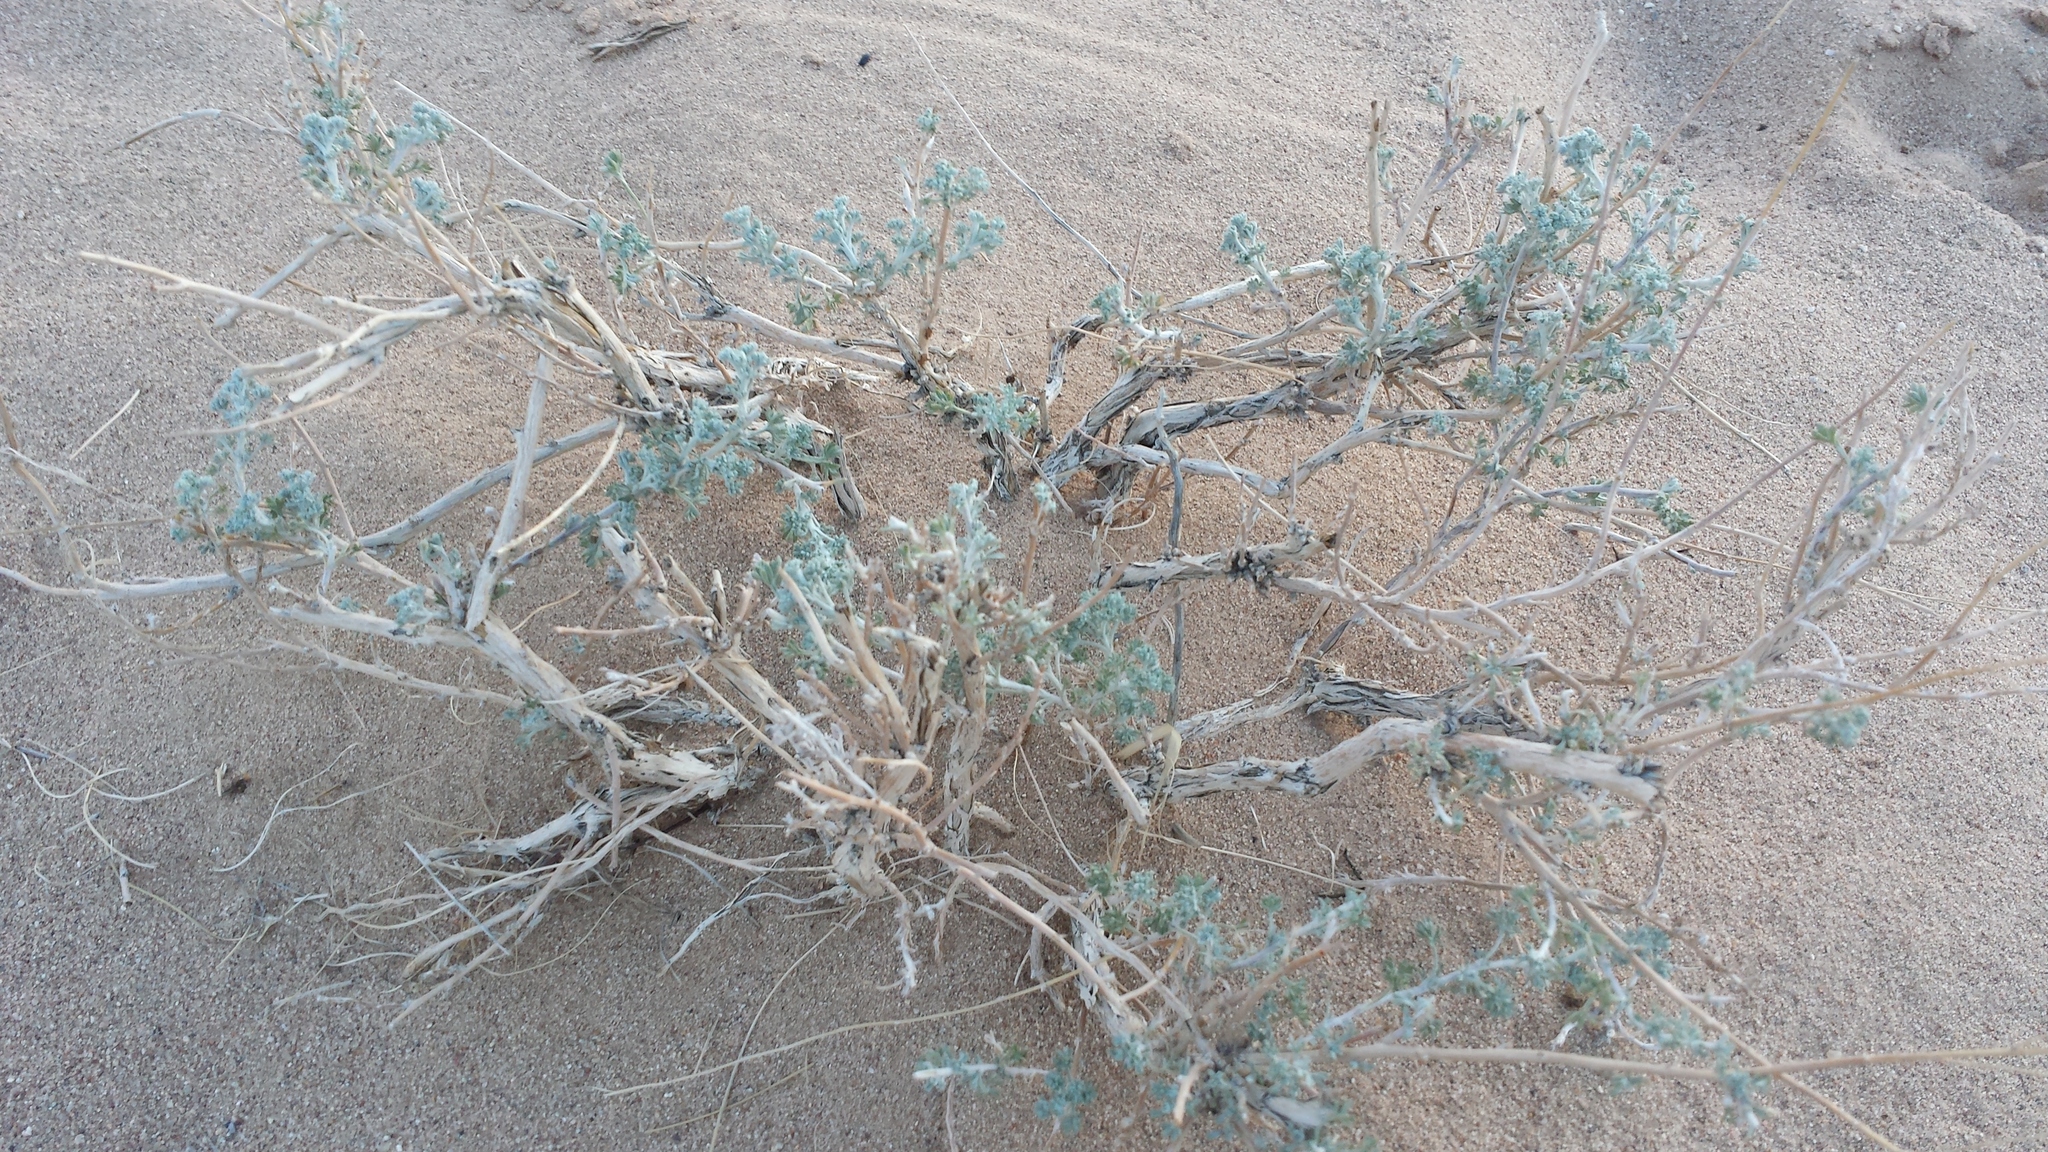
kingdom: Plantae
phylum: Tracheophyta
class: Magnoliopsida
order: Asterales
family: Asteraceae
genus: Artemisia
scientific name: Artemisia xerophytica
